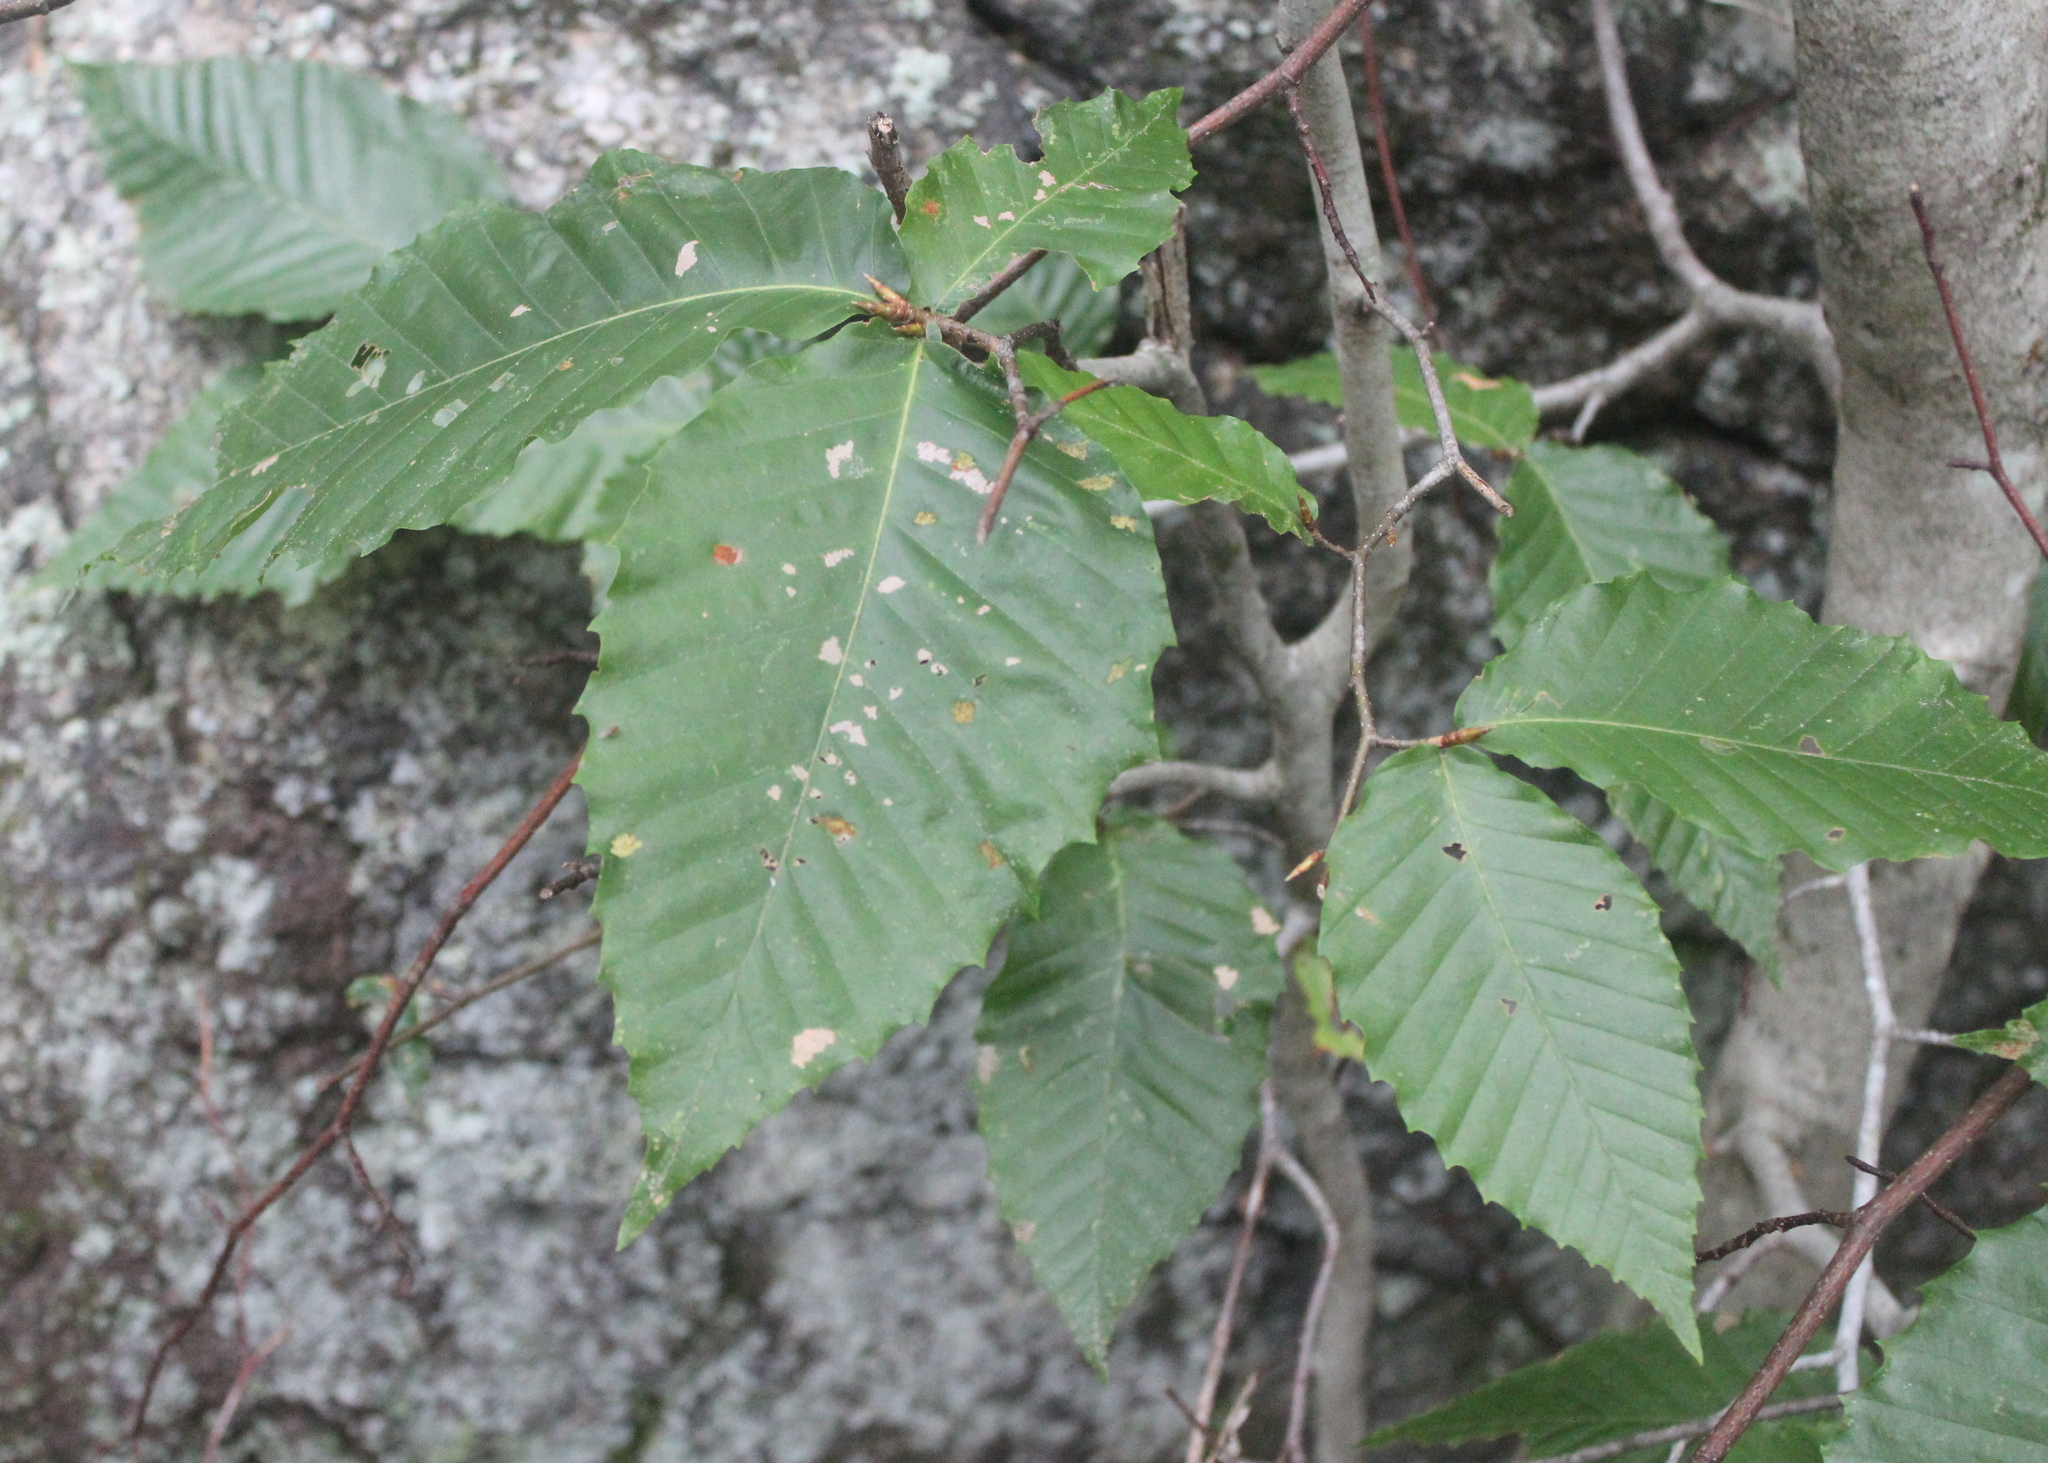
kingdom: Plantae
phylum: Tracheophyta
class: Magnoliopsida
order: Fagales
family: Fagaceae
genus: Fagus
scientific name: Fagus grandifolia
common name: American beech
